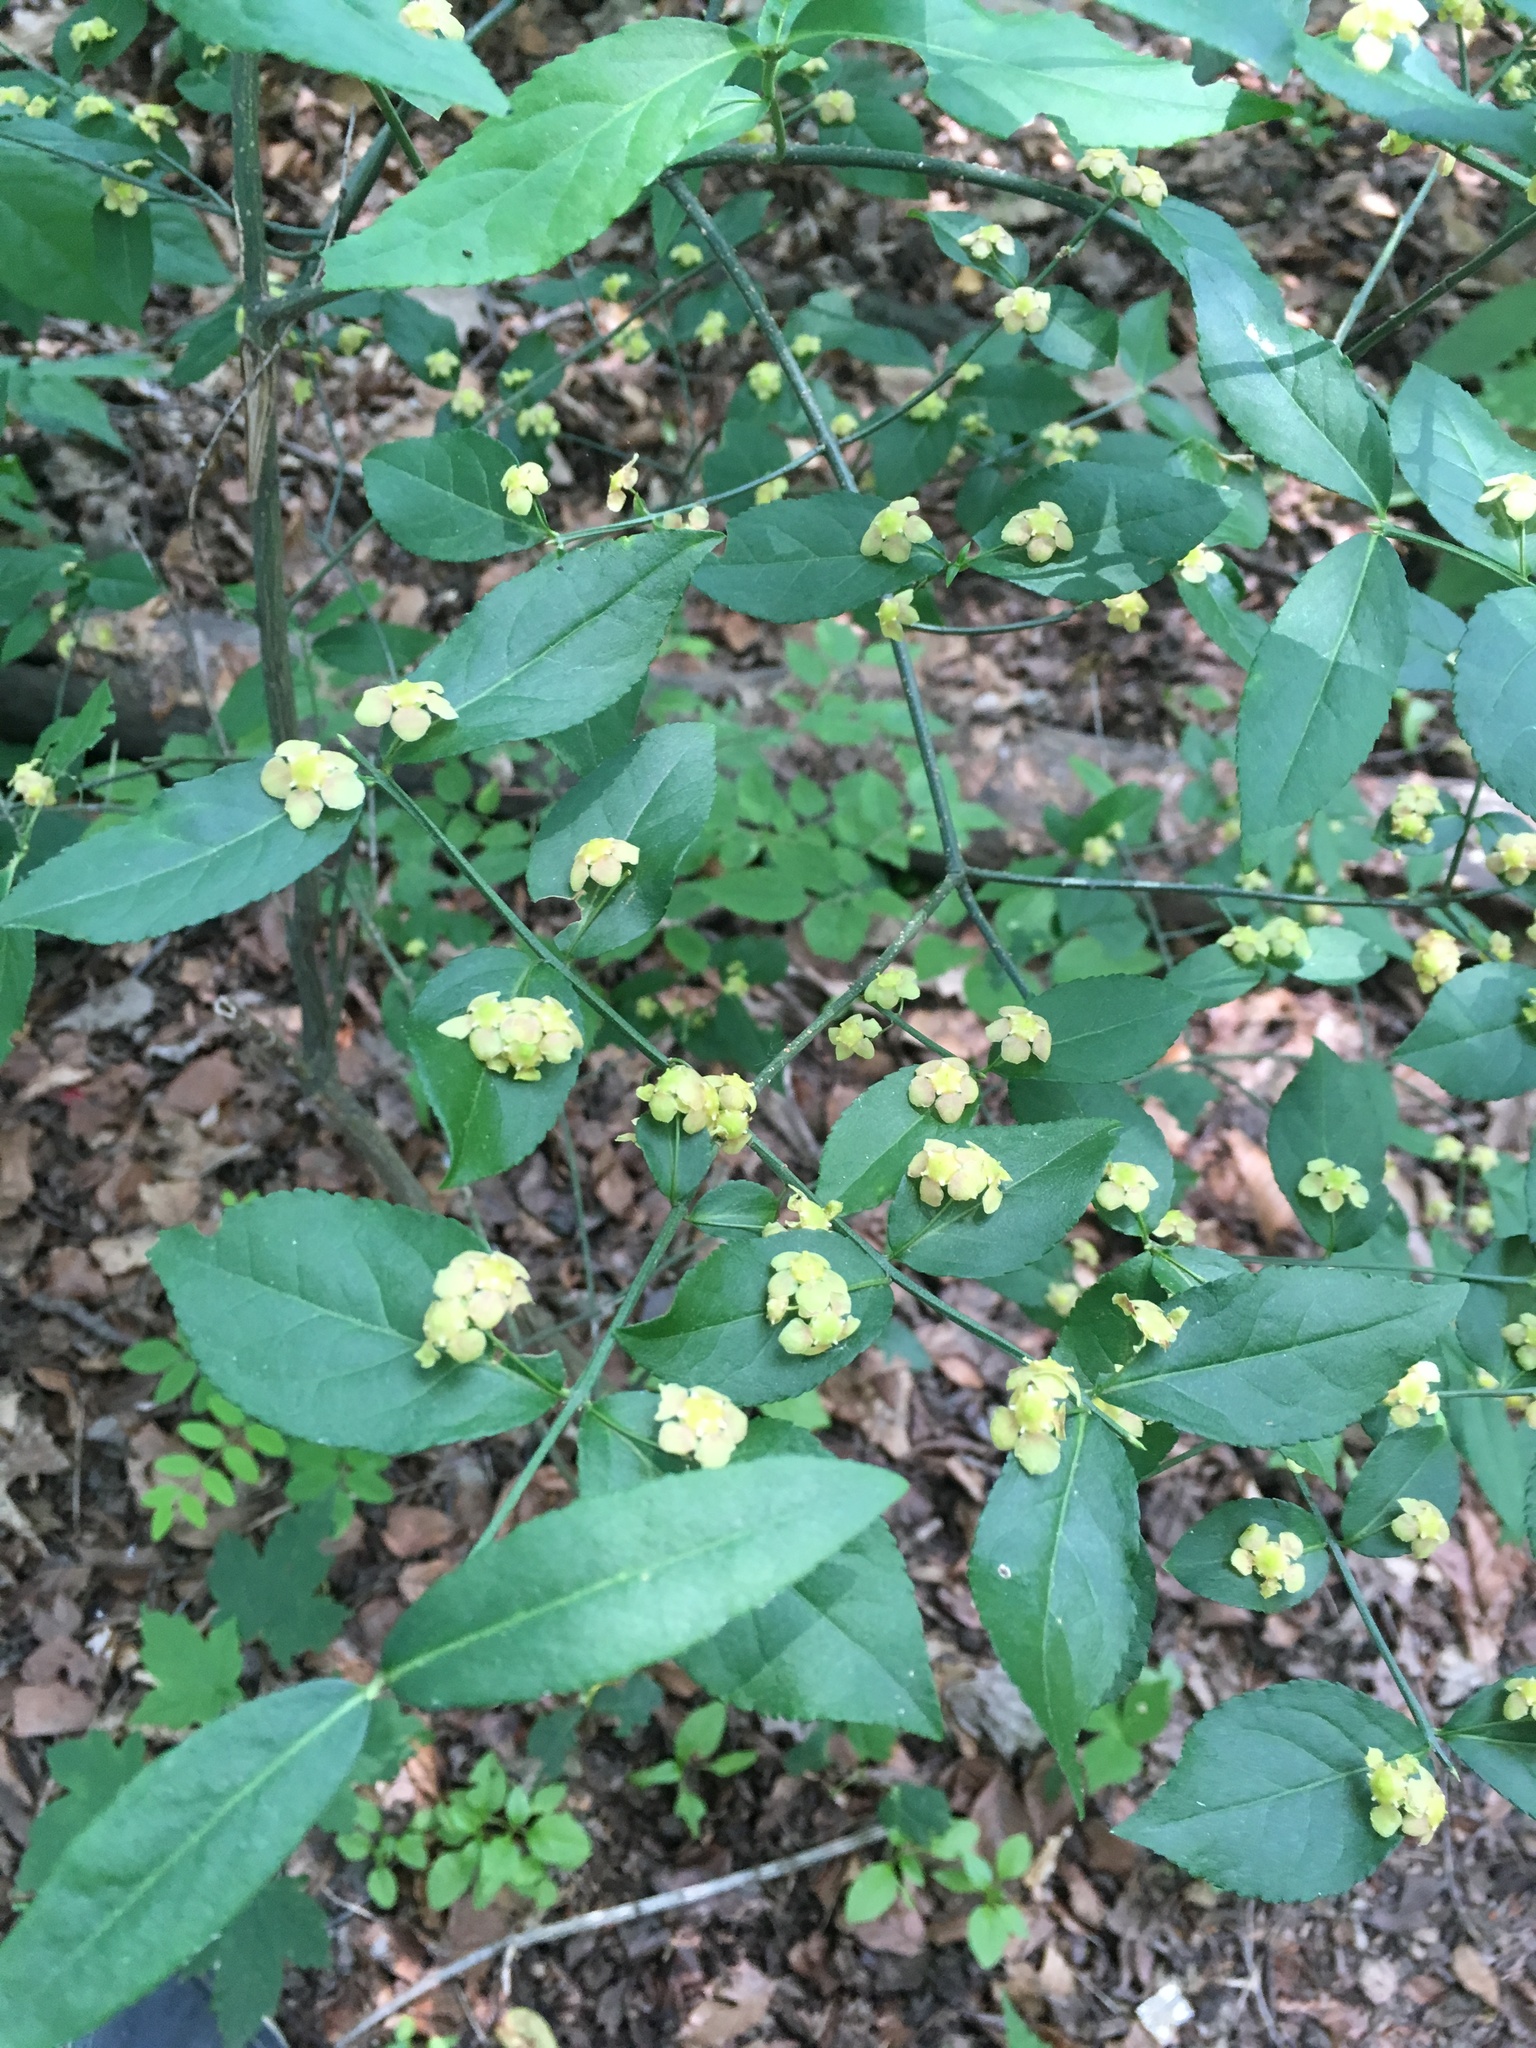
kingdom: Plantae
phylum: Tracheophyta
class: Magnoliopsida
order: Celastrales
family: Celastraceae
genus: Euonymus
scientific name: Euonymus americanus
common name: Bursting-heart
